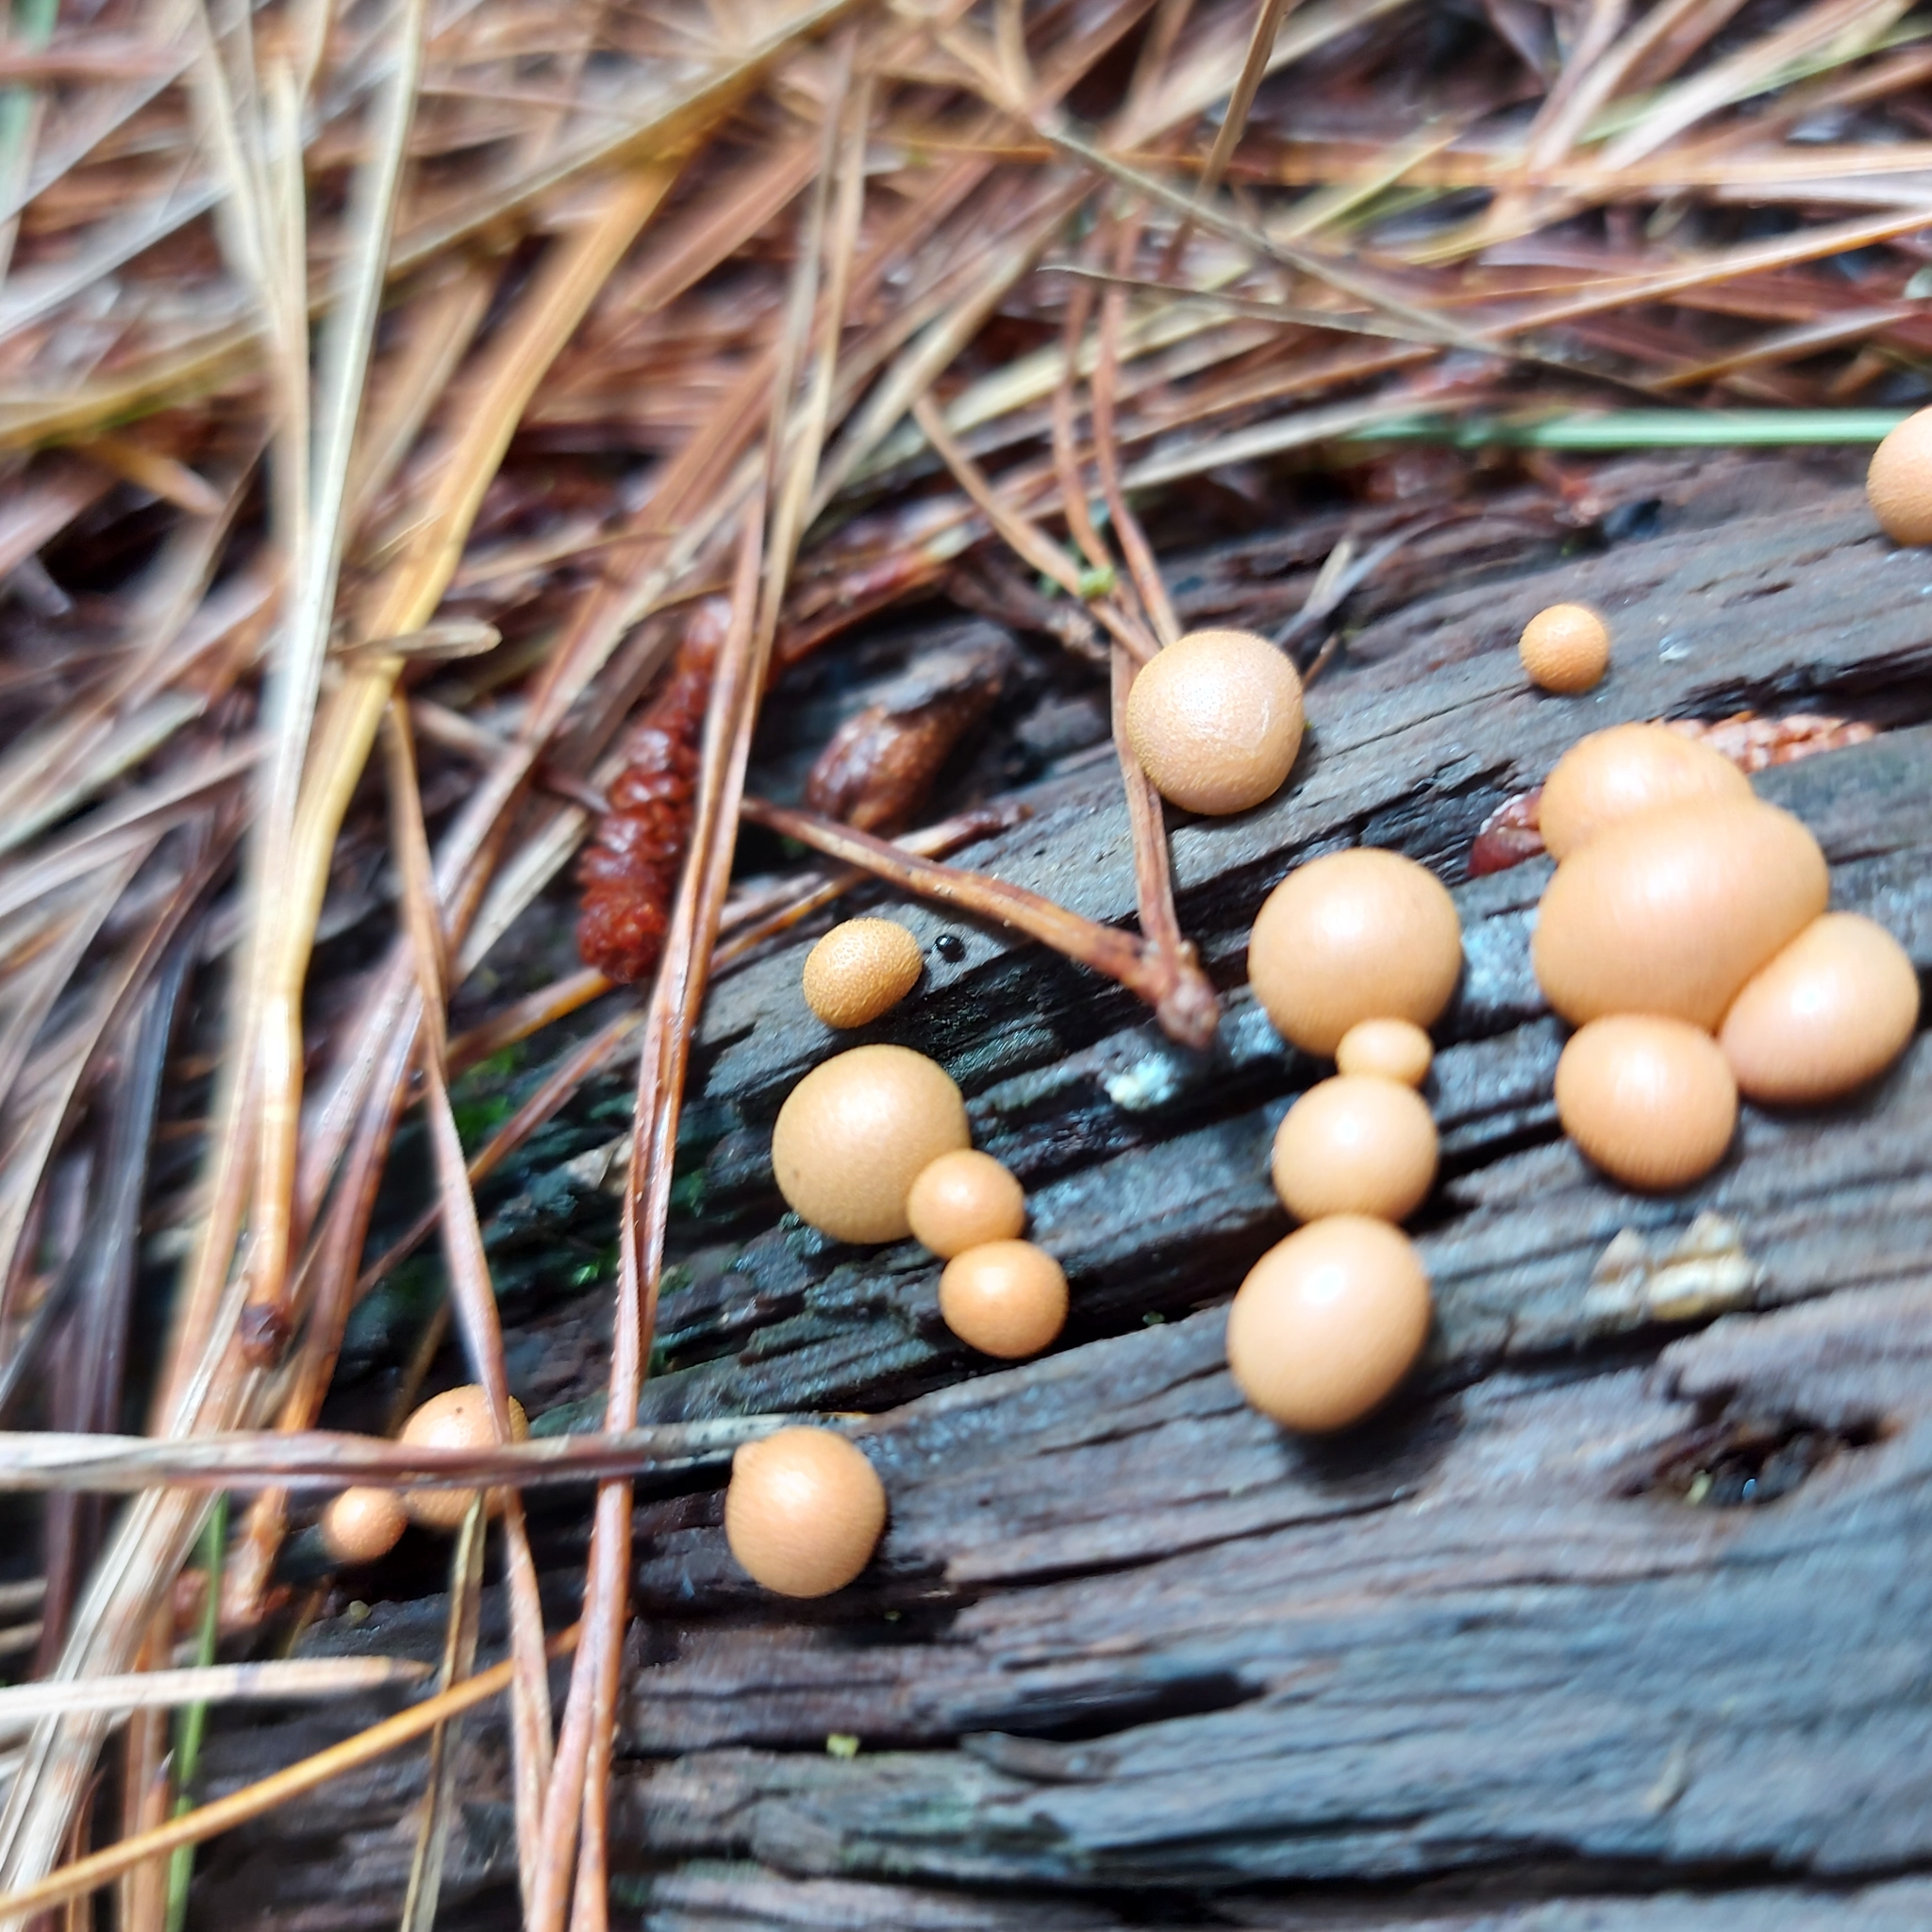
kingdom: Protozoa
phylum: Mycetozoa
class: Myxomycetes
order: Cribrariales
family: Tubiferaceae
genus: Lycogala
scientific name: Lycogala epidendrum
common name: Wolf's milk
